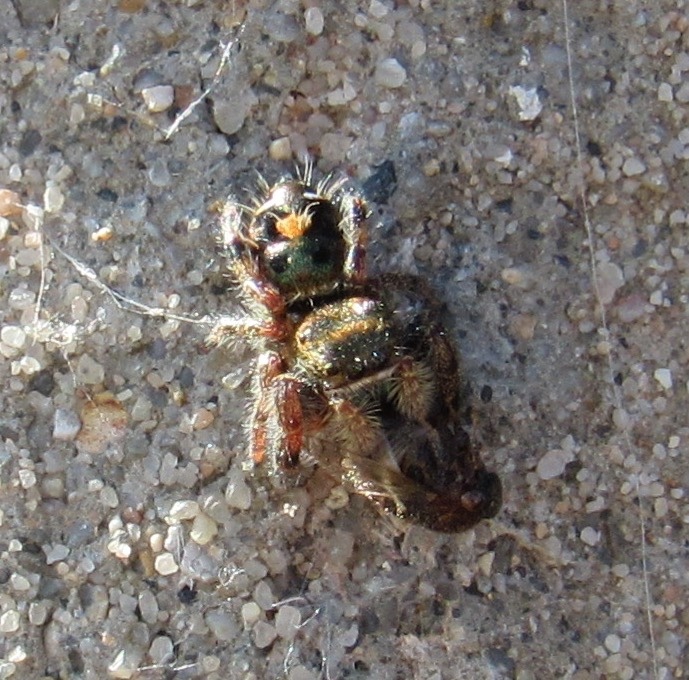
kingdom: Animalia
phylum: Arthropoda
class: Arachnida
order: Araneae
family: Salticidae
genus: Phidippus
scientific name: Phidippus audax
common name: Bold jumper
